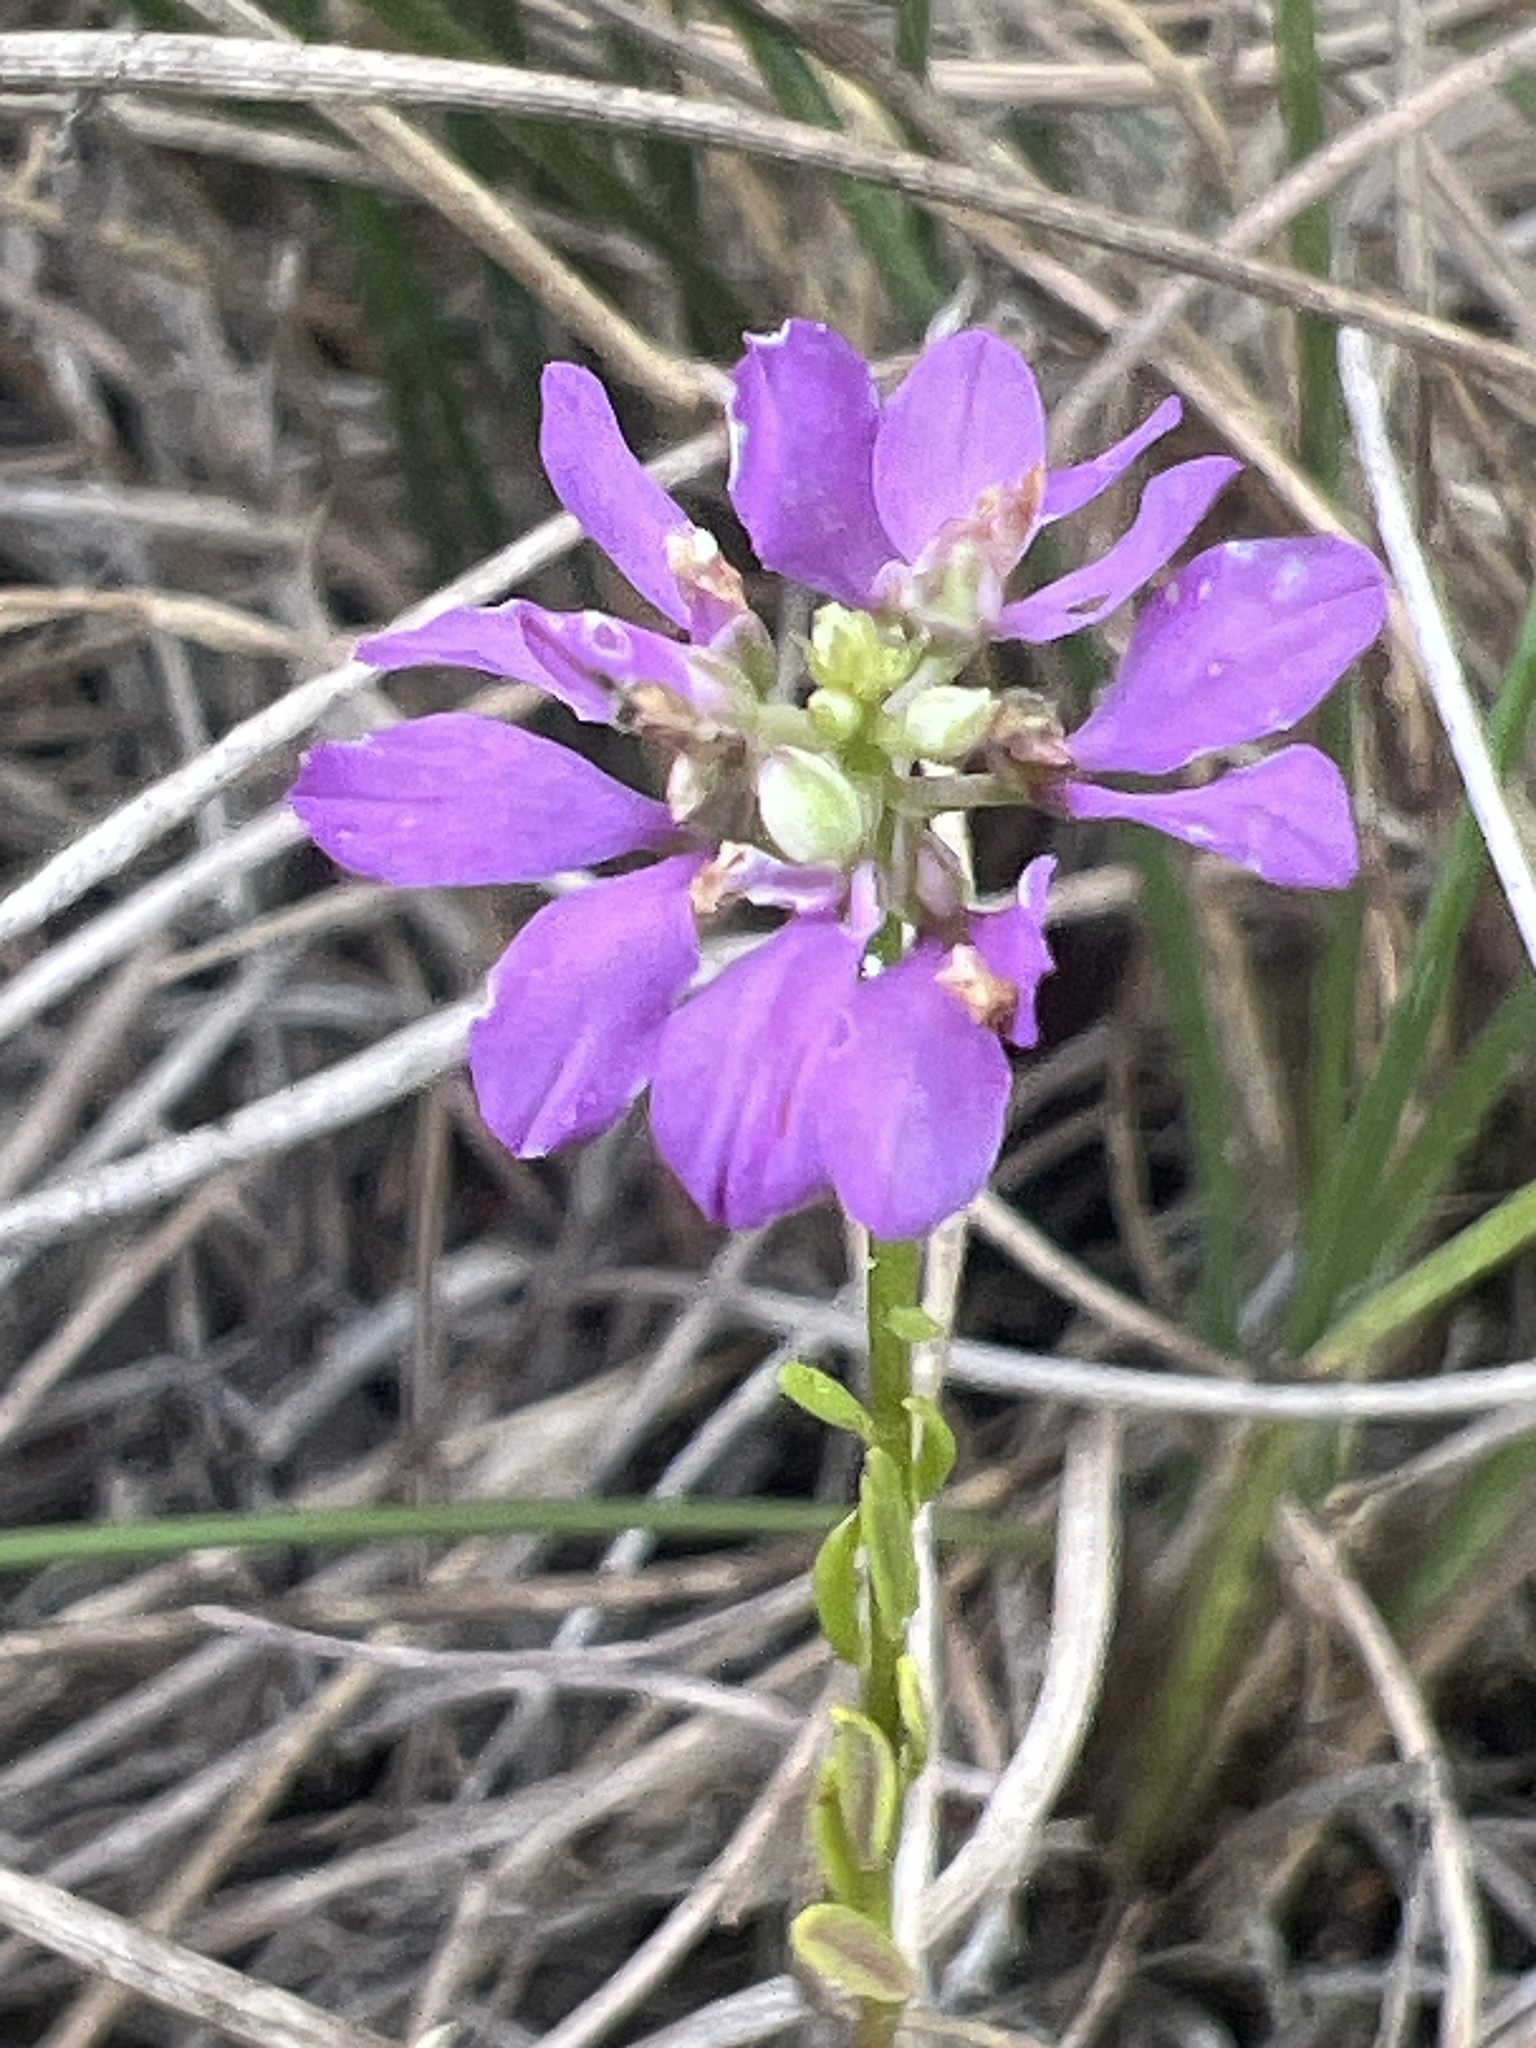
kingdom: Plantae
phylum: Tracheophyta
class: Magnoliopsida
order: Fabales
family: Polygalaceae
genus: Polygala
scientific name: Polygala curtissii
